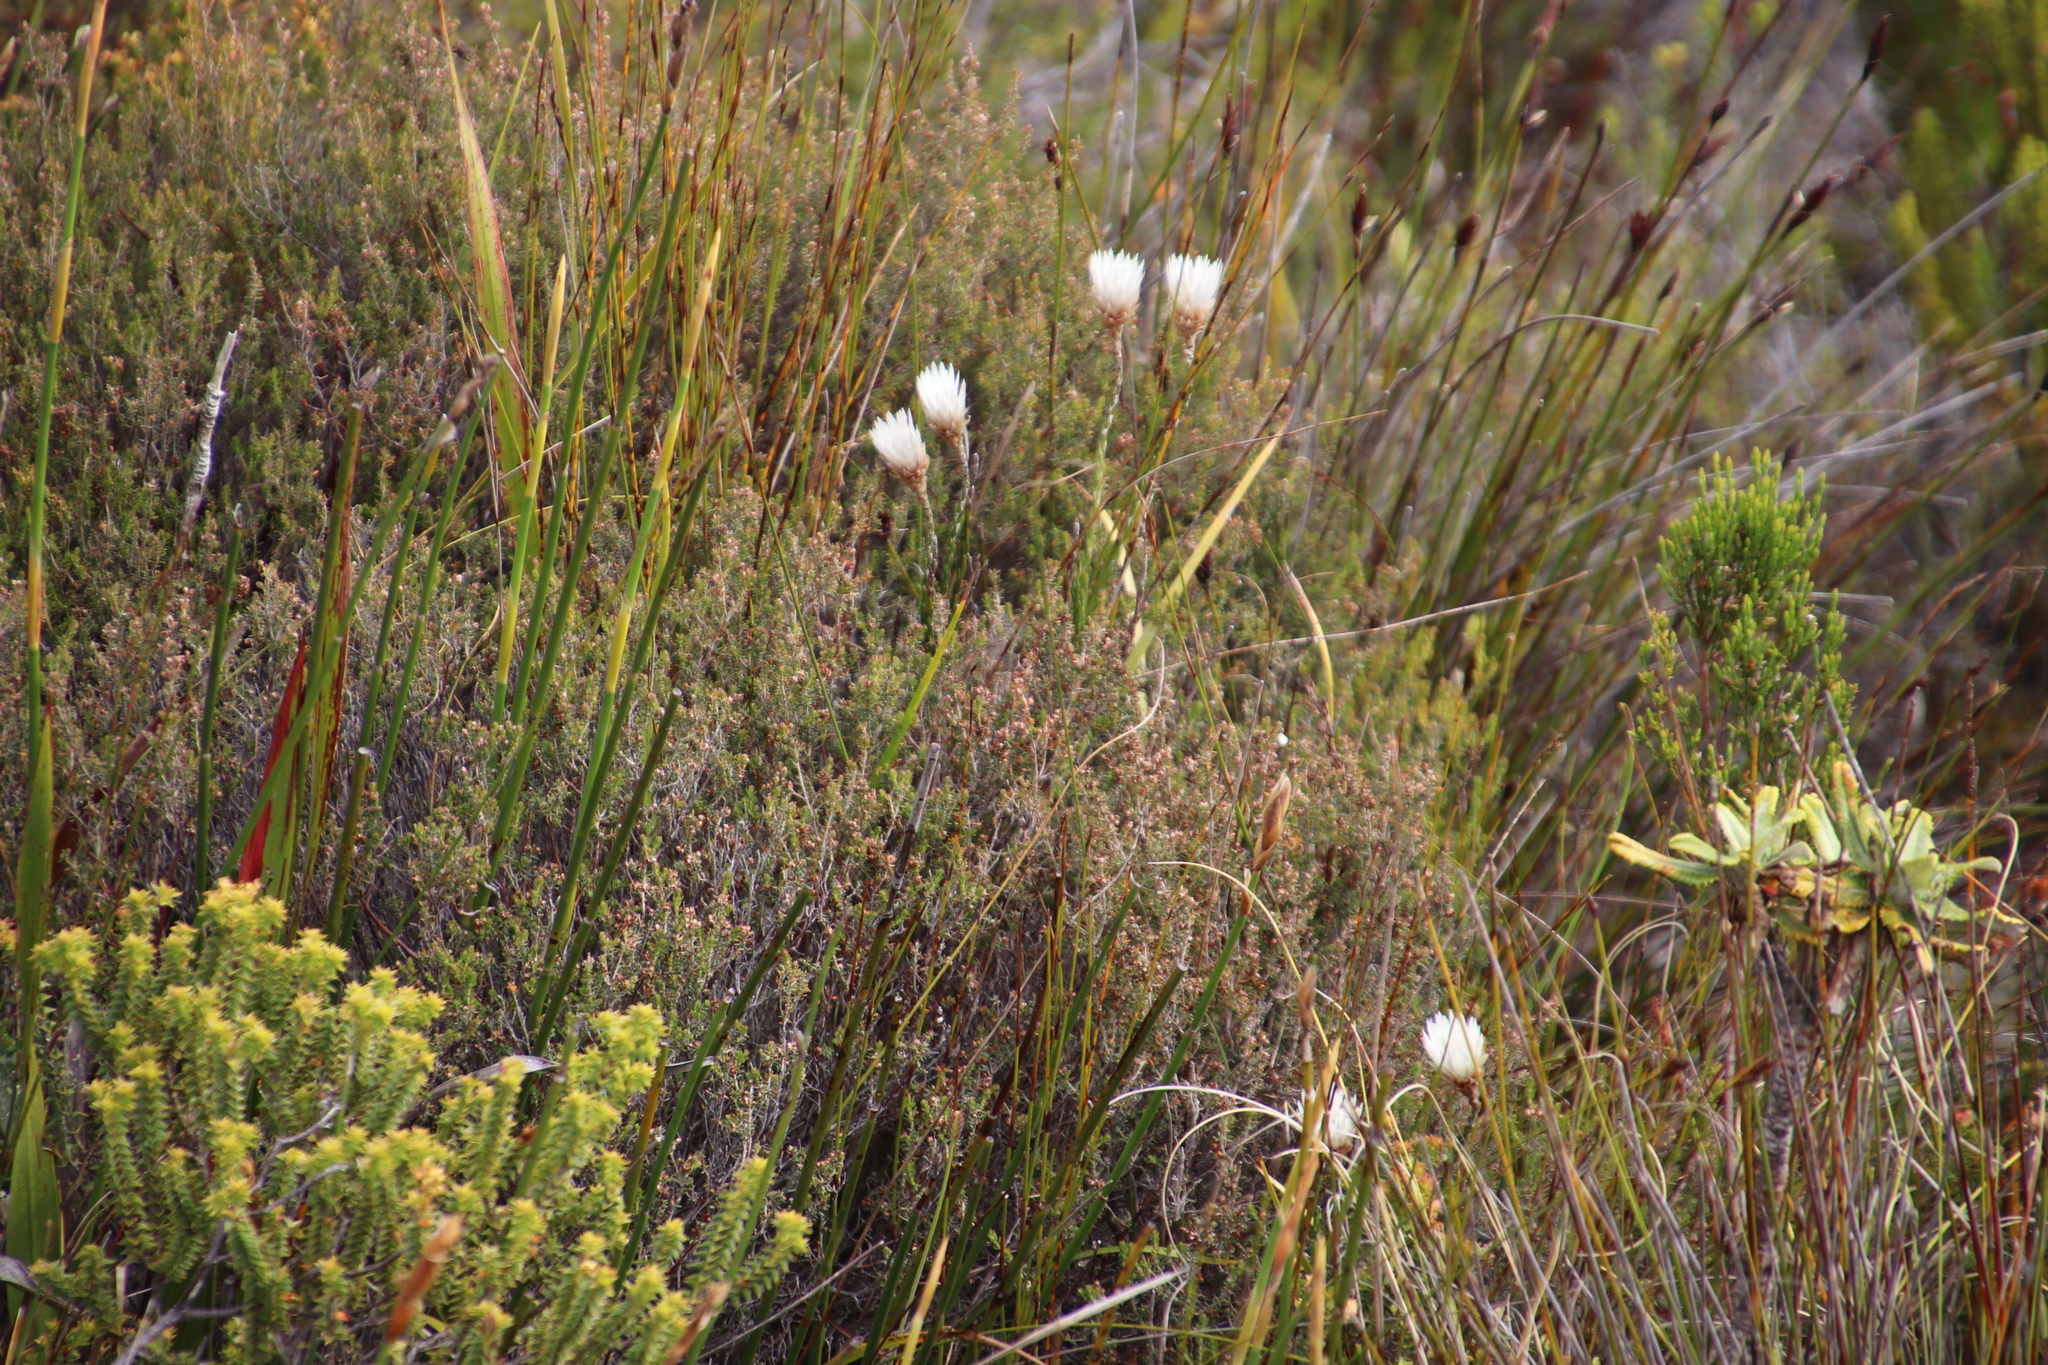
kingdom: Plantae
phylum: Tracheophyta
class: Magnoliopsida
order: Asterales
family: Asteraceae
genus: Edmondia
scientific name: Edmondia pinifolia
